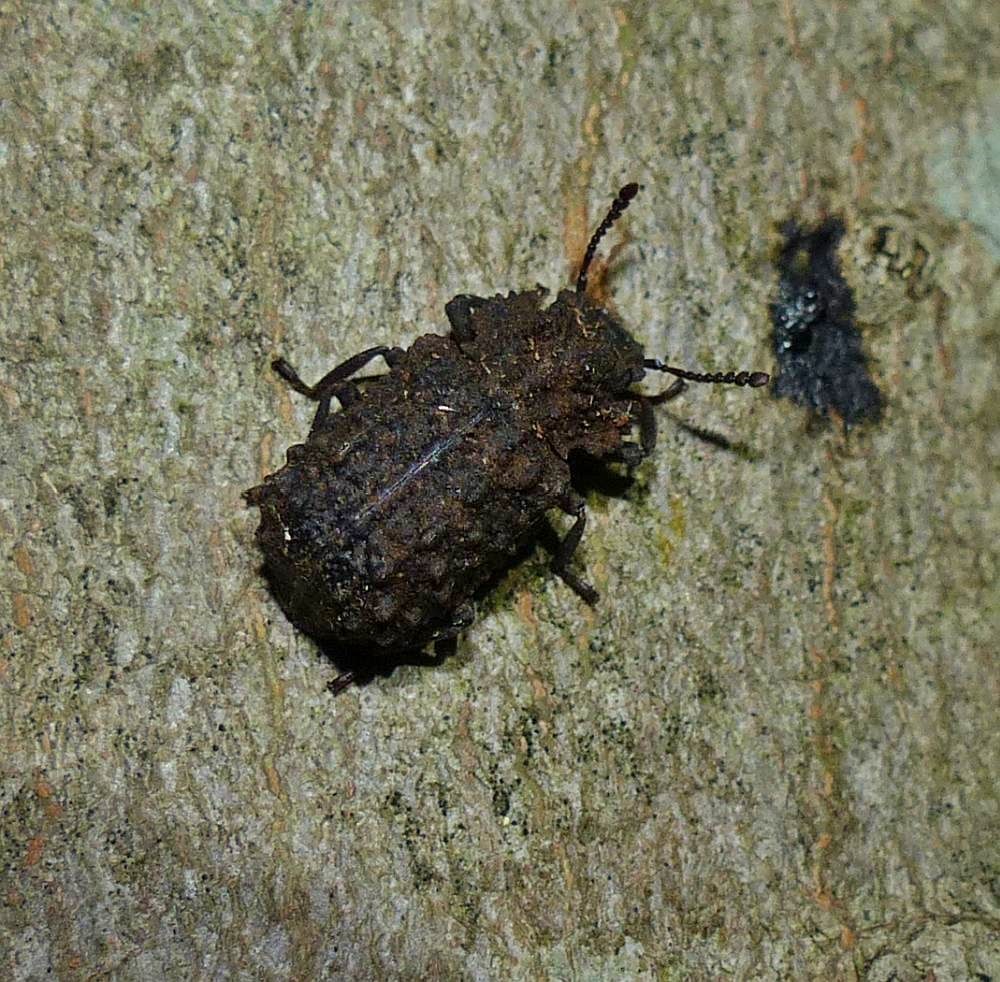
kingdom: Animalia
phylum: Arthropoda
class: Insecta
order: Coleoptera
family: Tenebrionidae
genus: Gnatocerus
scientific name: Gnatocerus cornutus
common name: Broad-horned flour beetle
